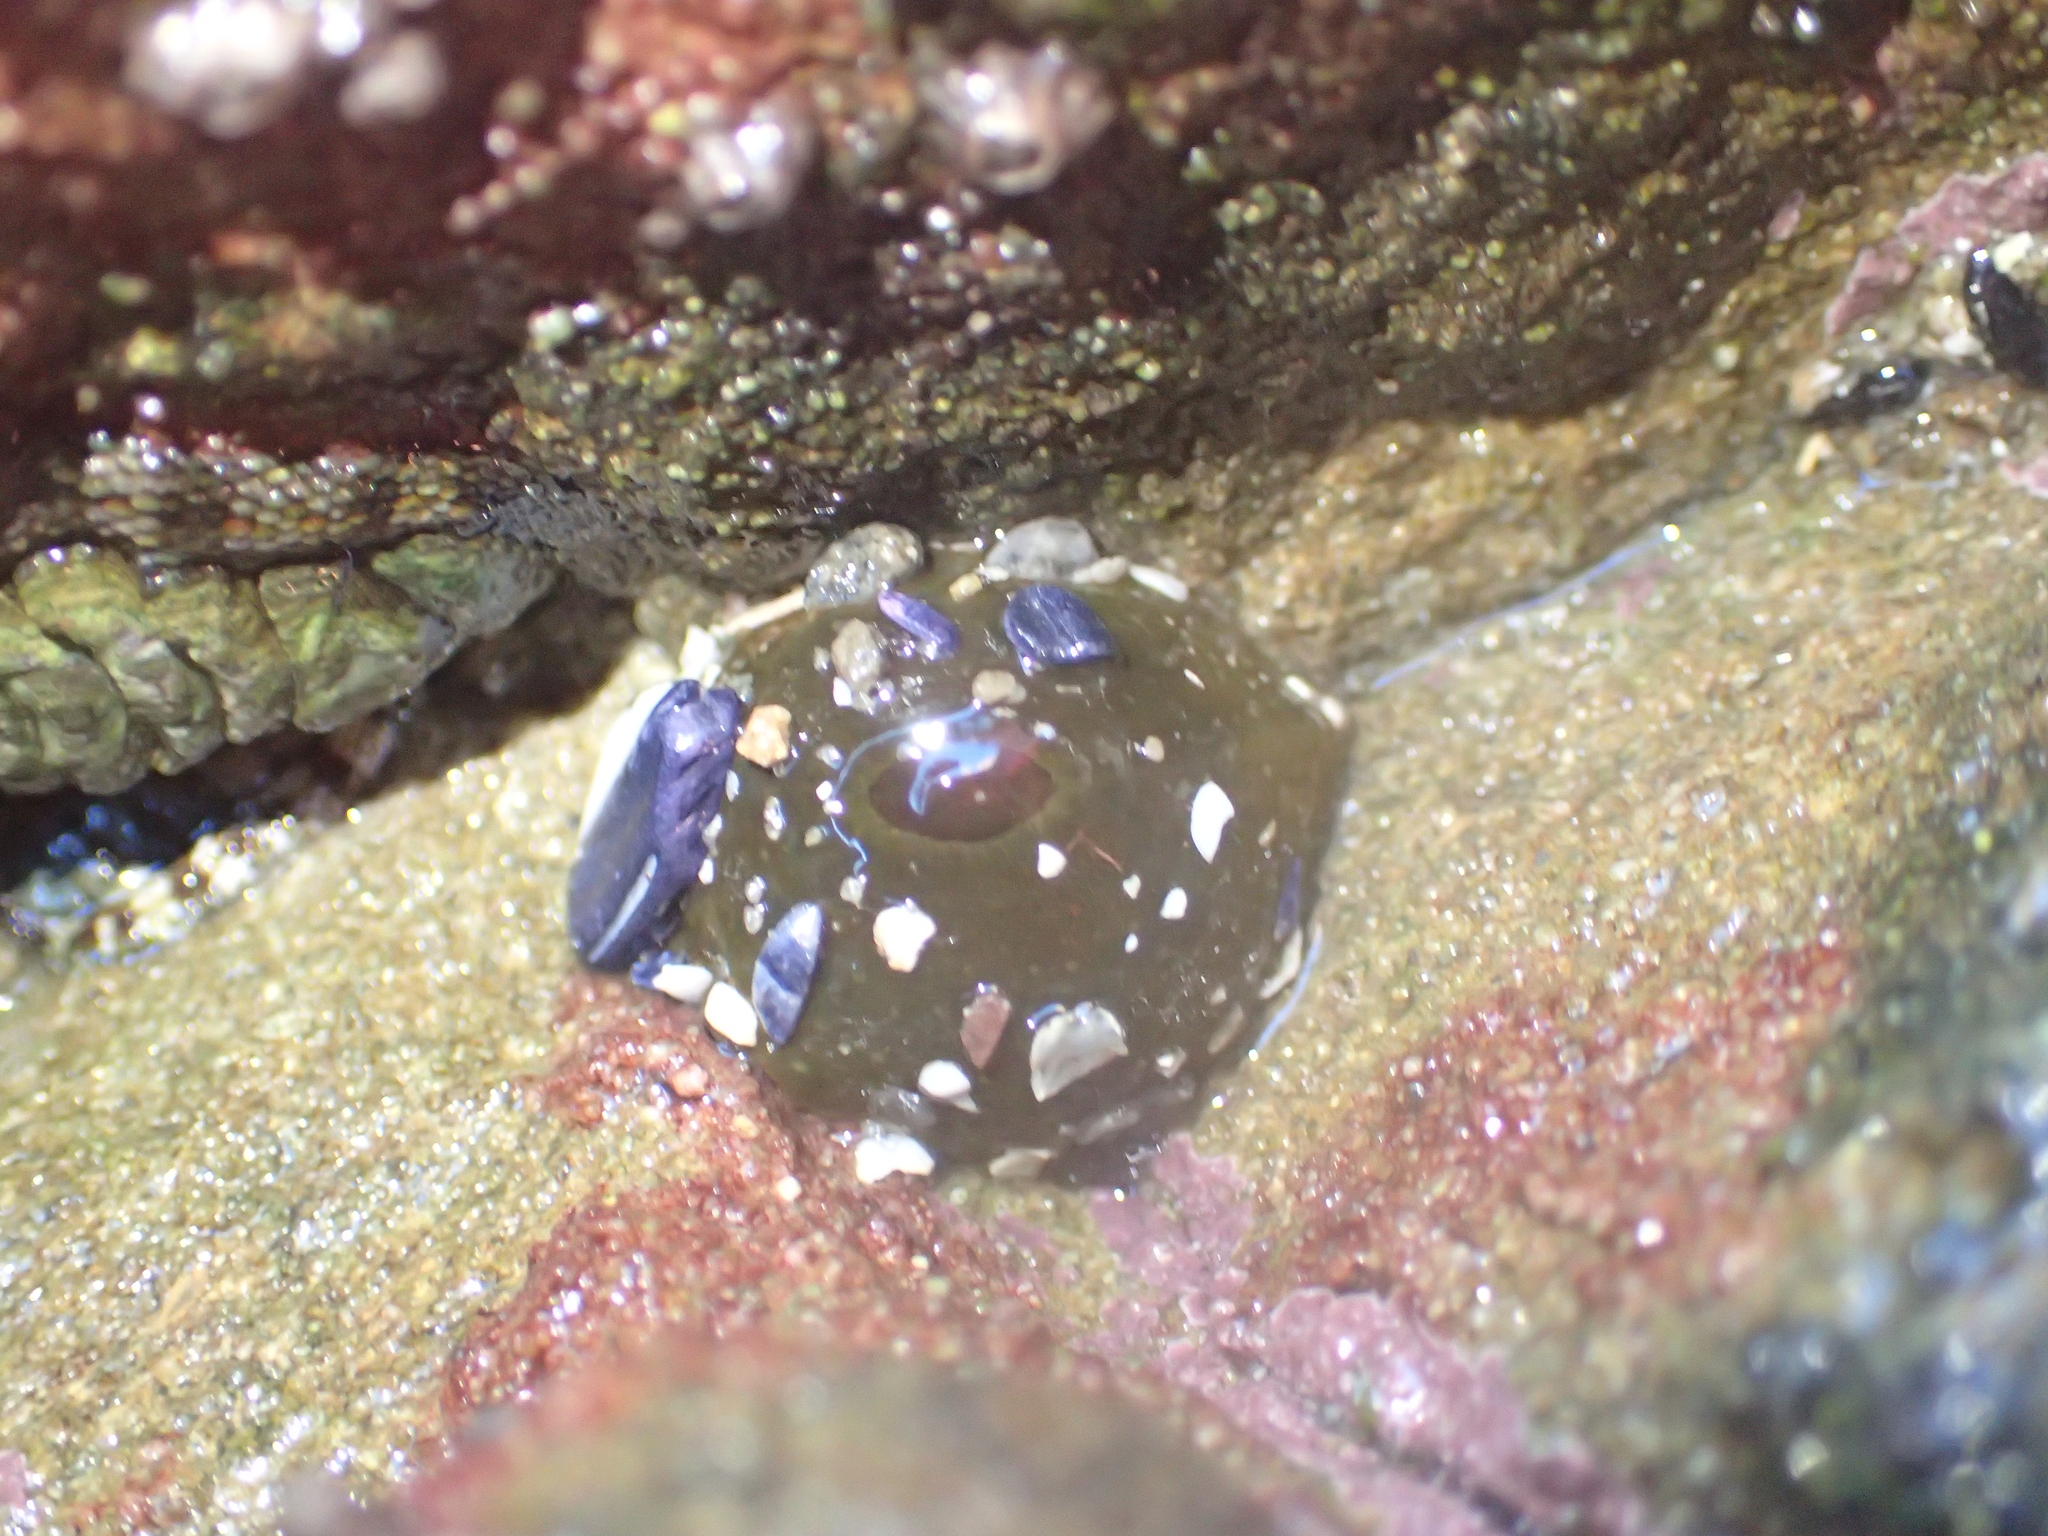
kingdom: Animalia
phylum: Cnidaria
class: Anthozoa
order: Actiniaria
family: Actiniidae
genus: Isactinia
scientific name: Isactinia olivacea
